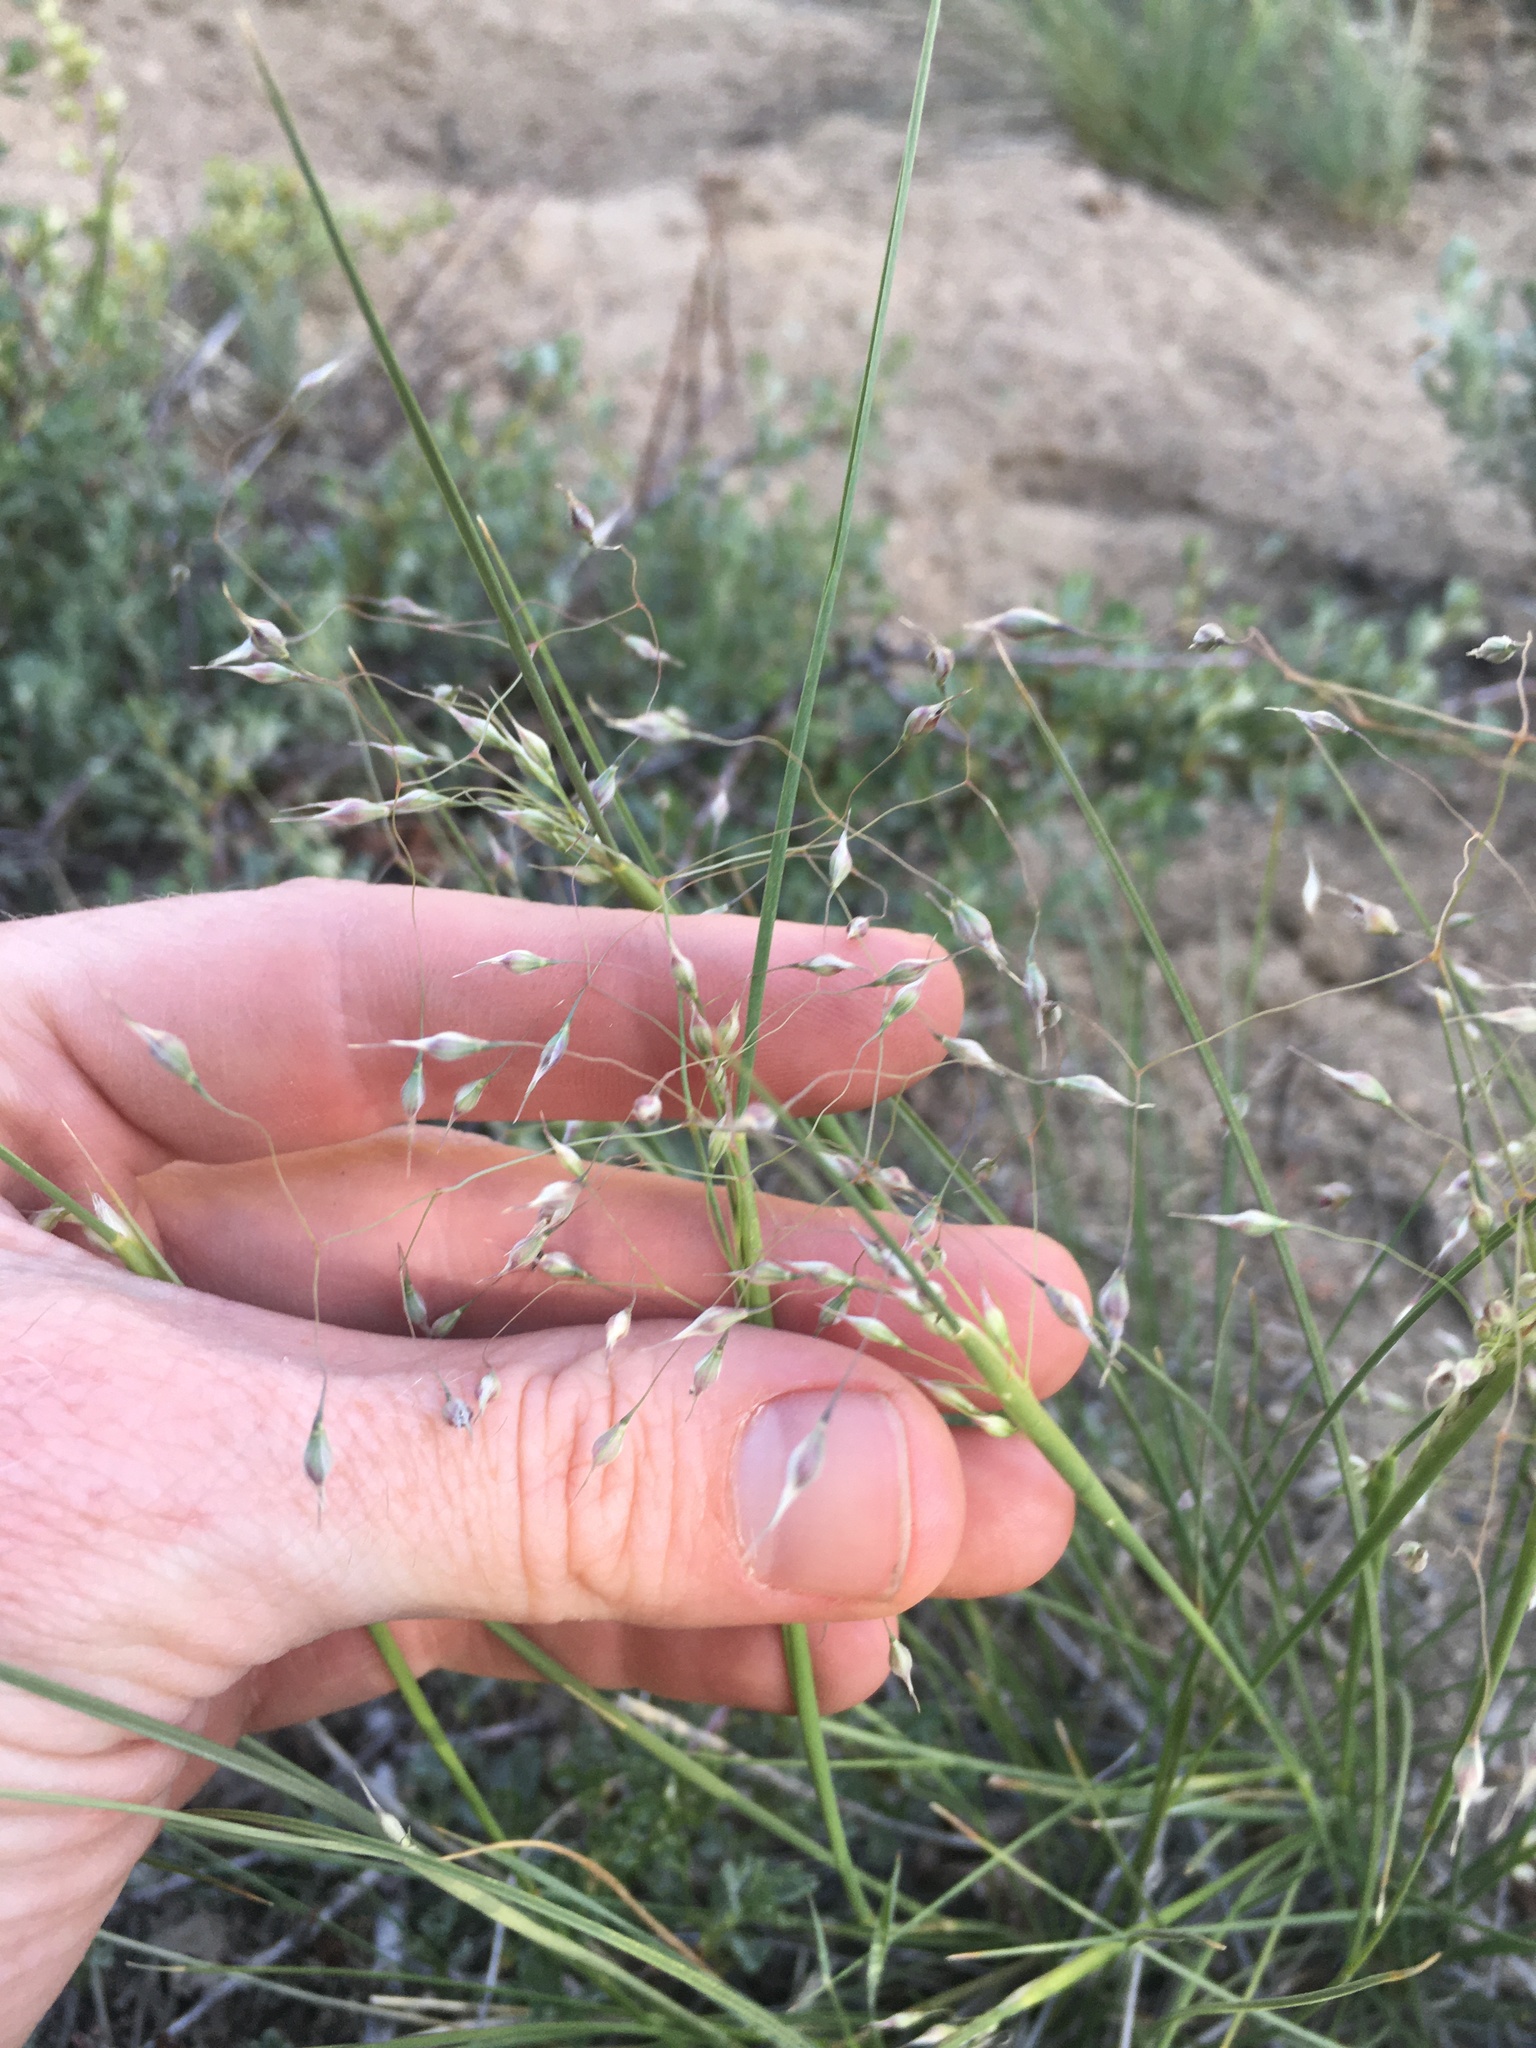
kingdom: Plantae
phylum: Tracheophyta
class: Liliopsida
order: Poales
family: Poaceae
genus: Eriocoma
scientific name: Eriocoma hymenoides
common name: Indian mountain ricegrass
